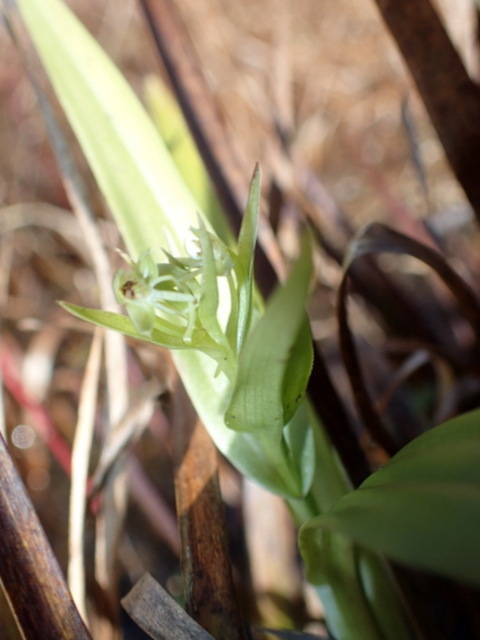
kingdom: Plantae
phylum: Tracheophyta
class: Liliopsida
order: Asparagales
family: Orchidaceae
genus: Habenaria
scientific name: Habenaria repens
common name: Water orchid
